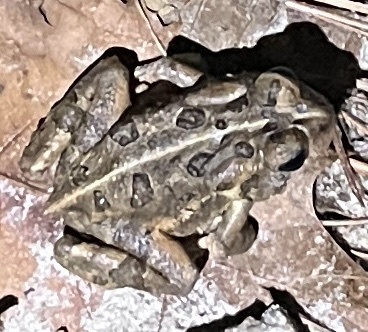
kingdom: Animalia
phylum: Chordata
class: Amphibia
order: Anura
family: Bufonidae
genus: Anaxyrus
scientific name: Anaxyrus fowleri
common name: Fowler's toad
